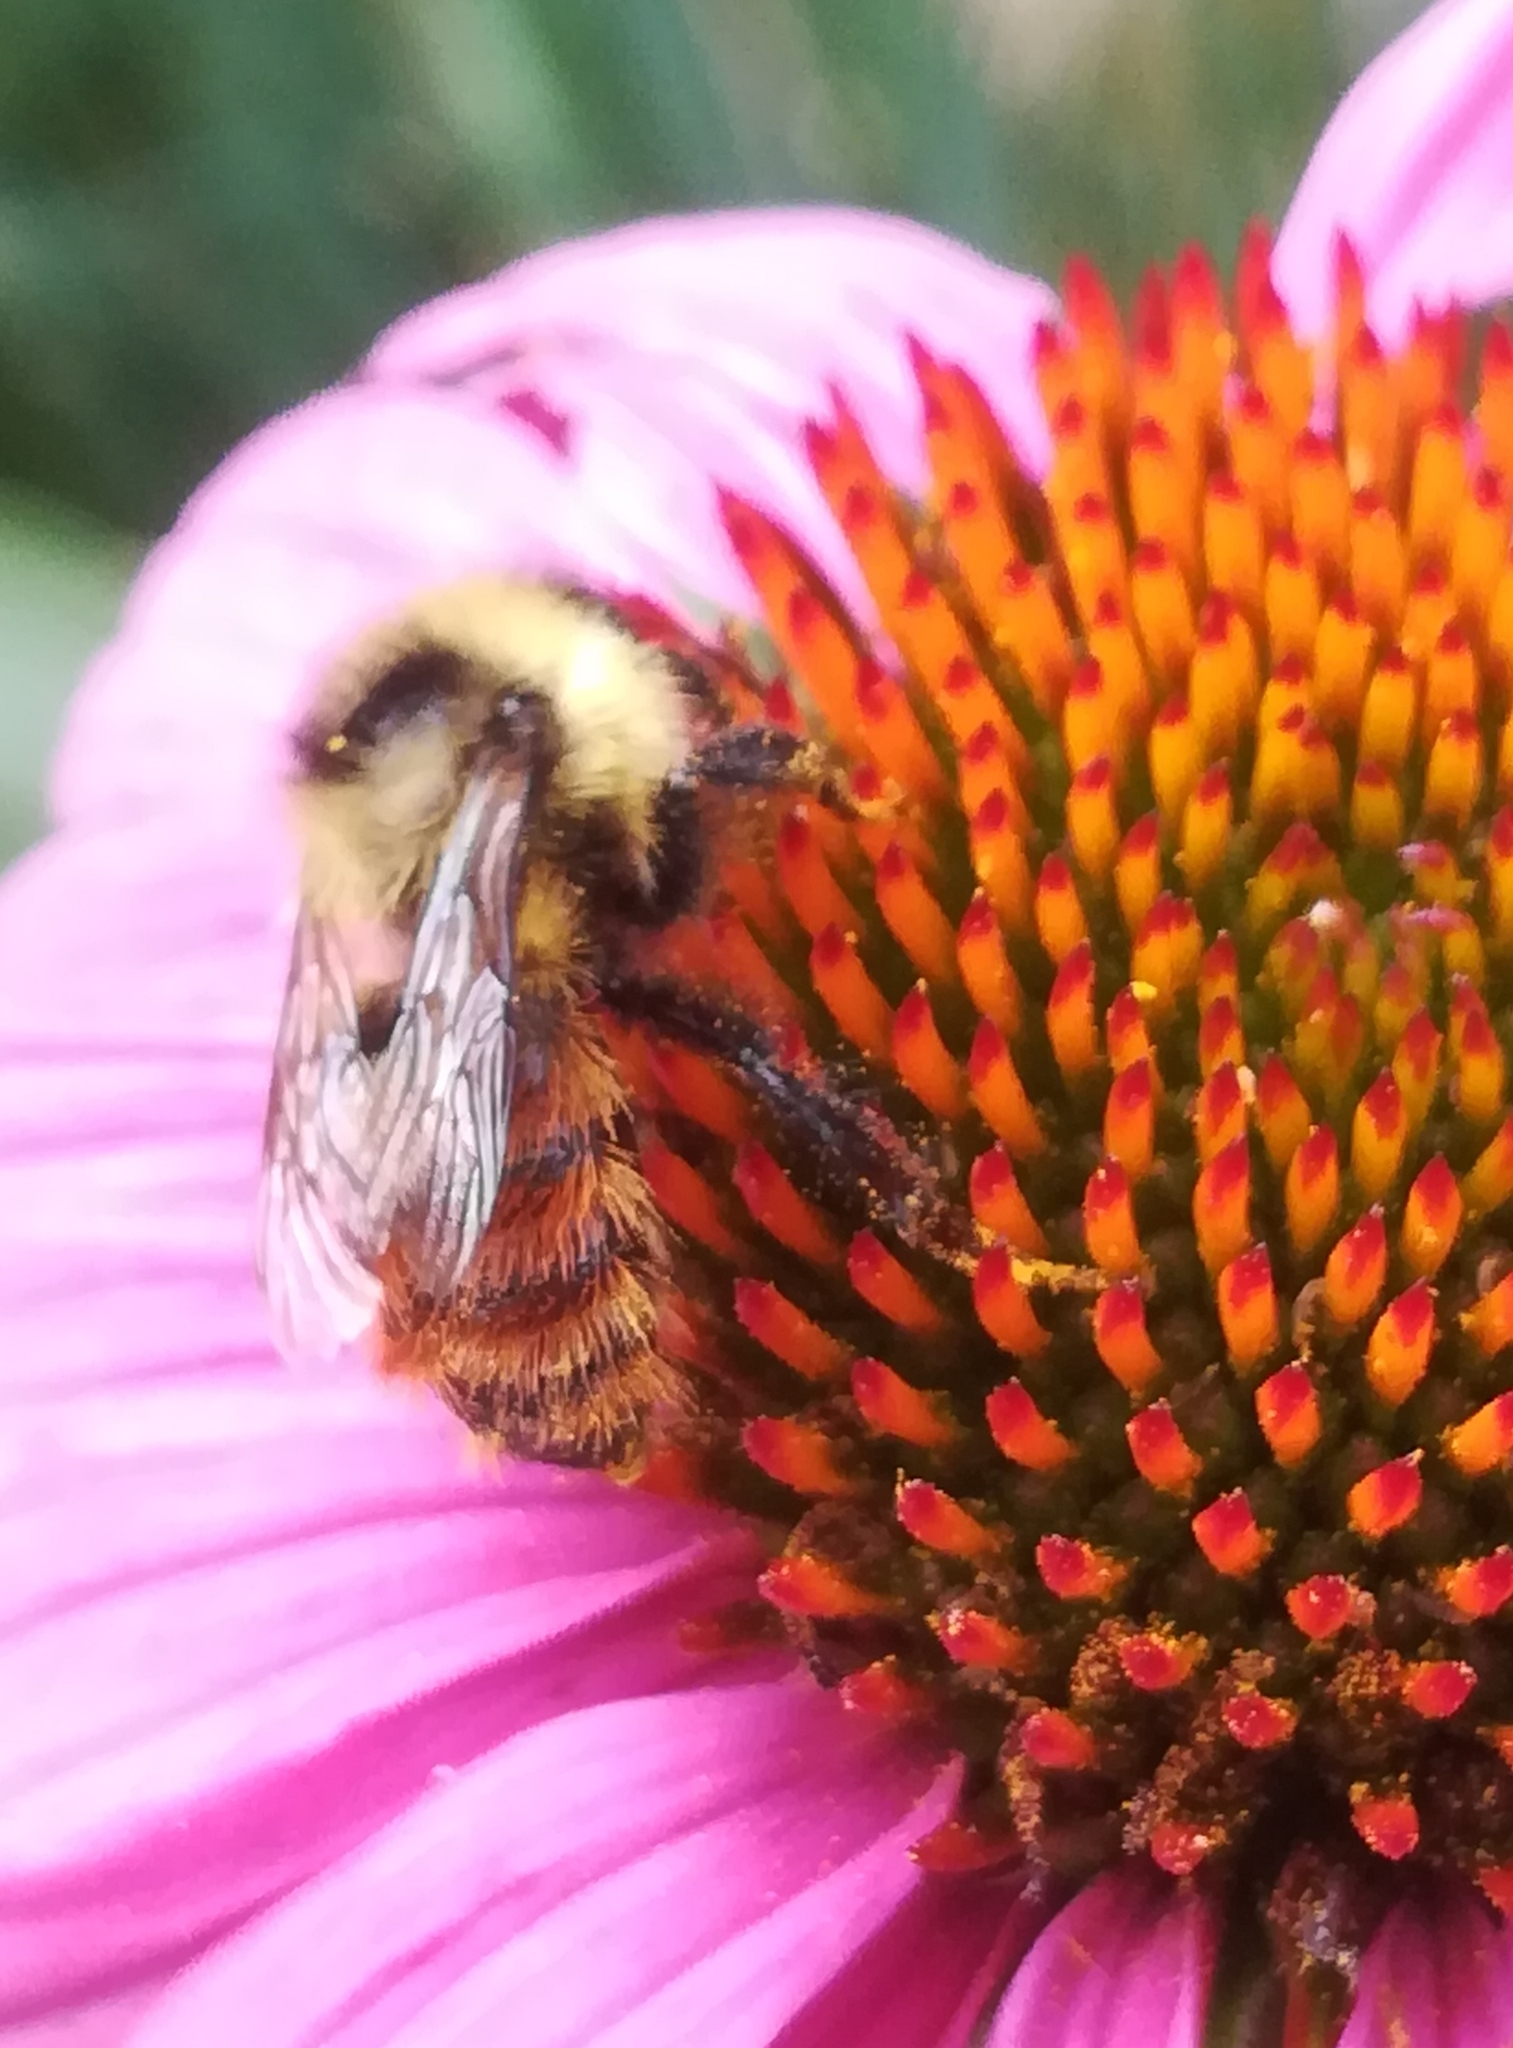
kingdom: Animalia
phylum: Arthropoda
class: Insecta
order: Hymenoptera
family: Apidae
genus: Bombus
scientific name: Bombus rufocinctus
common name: Red-belted bumble bee
